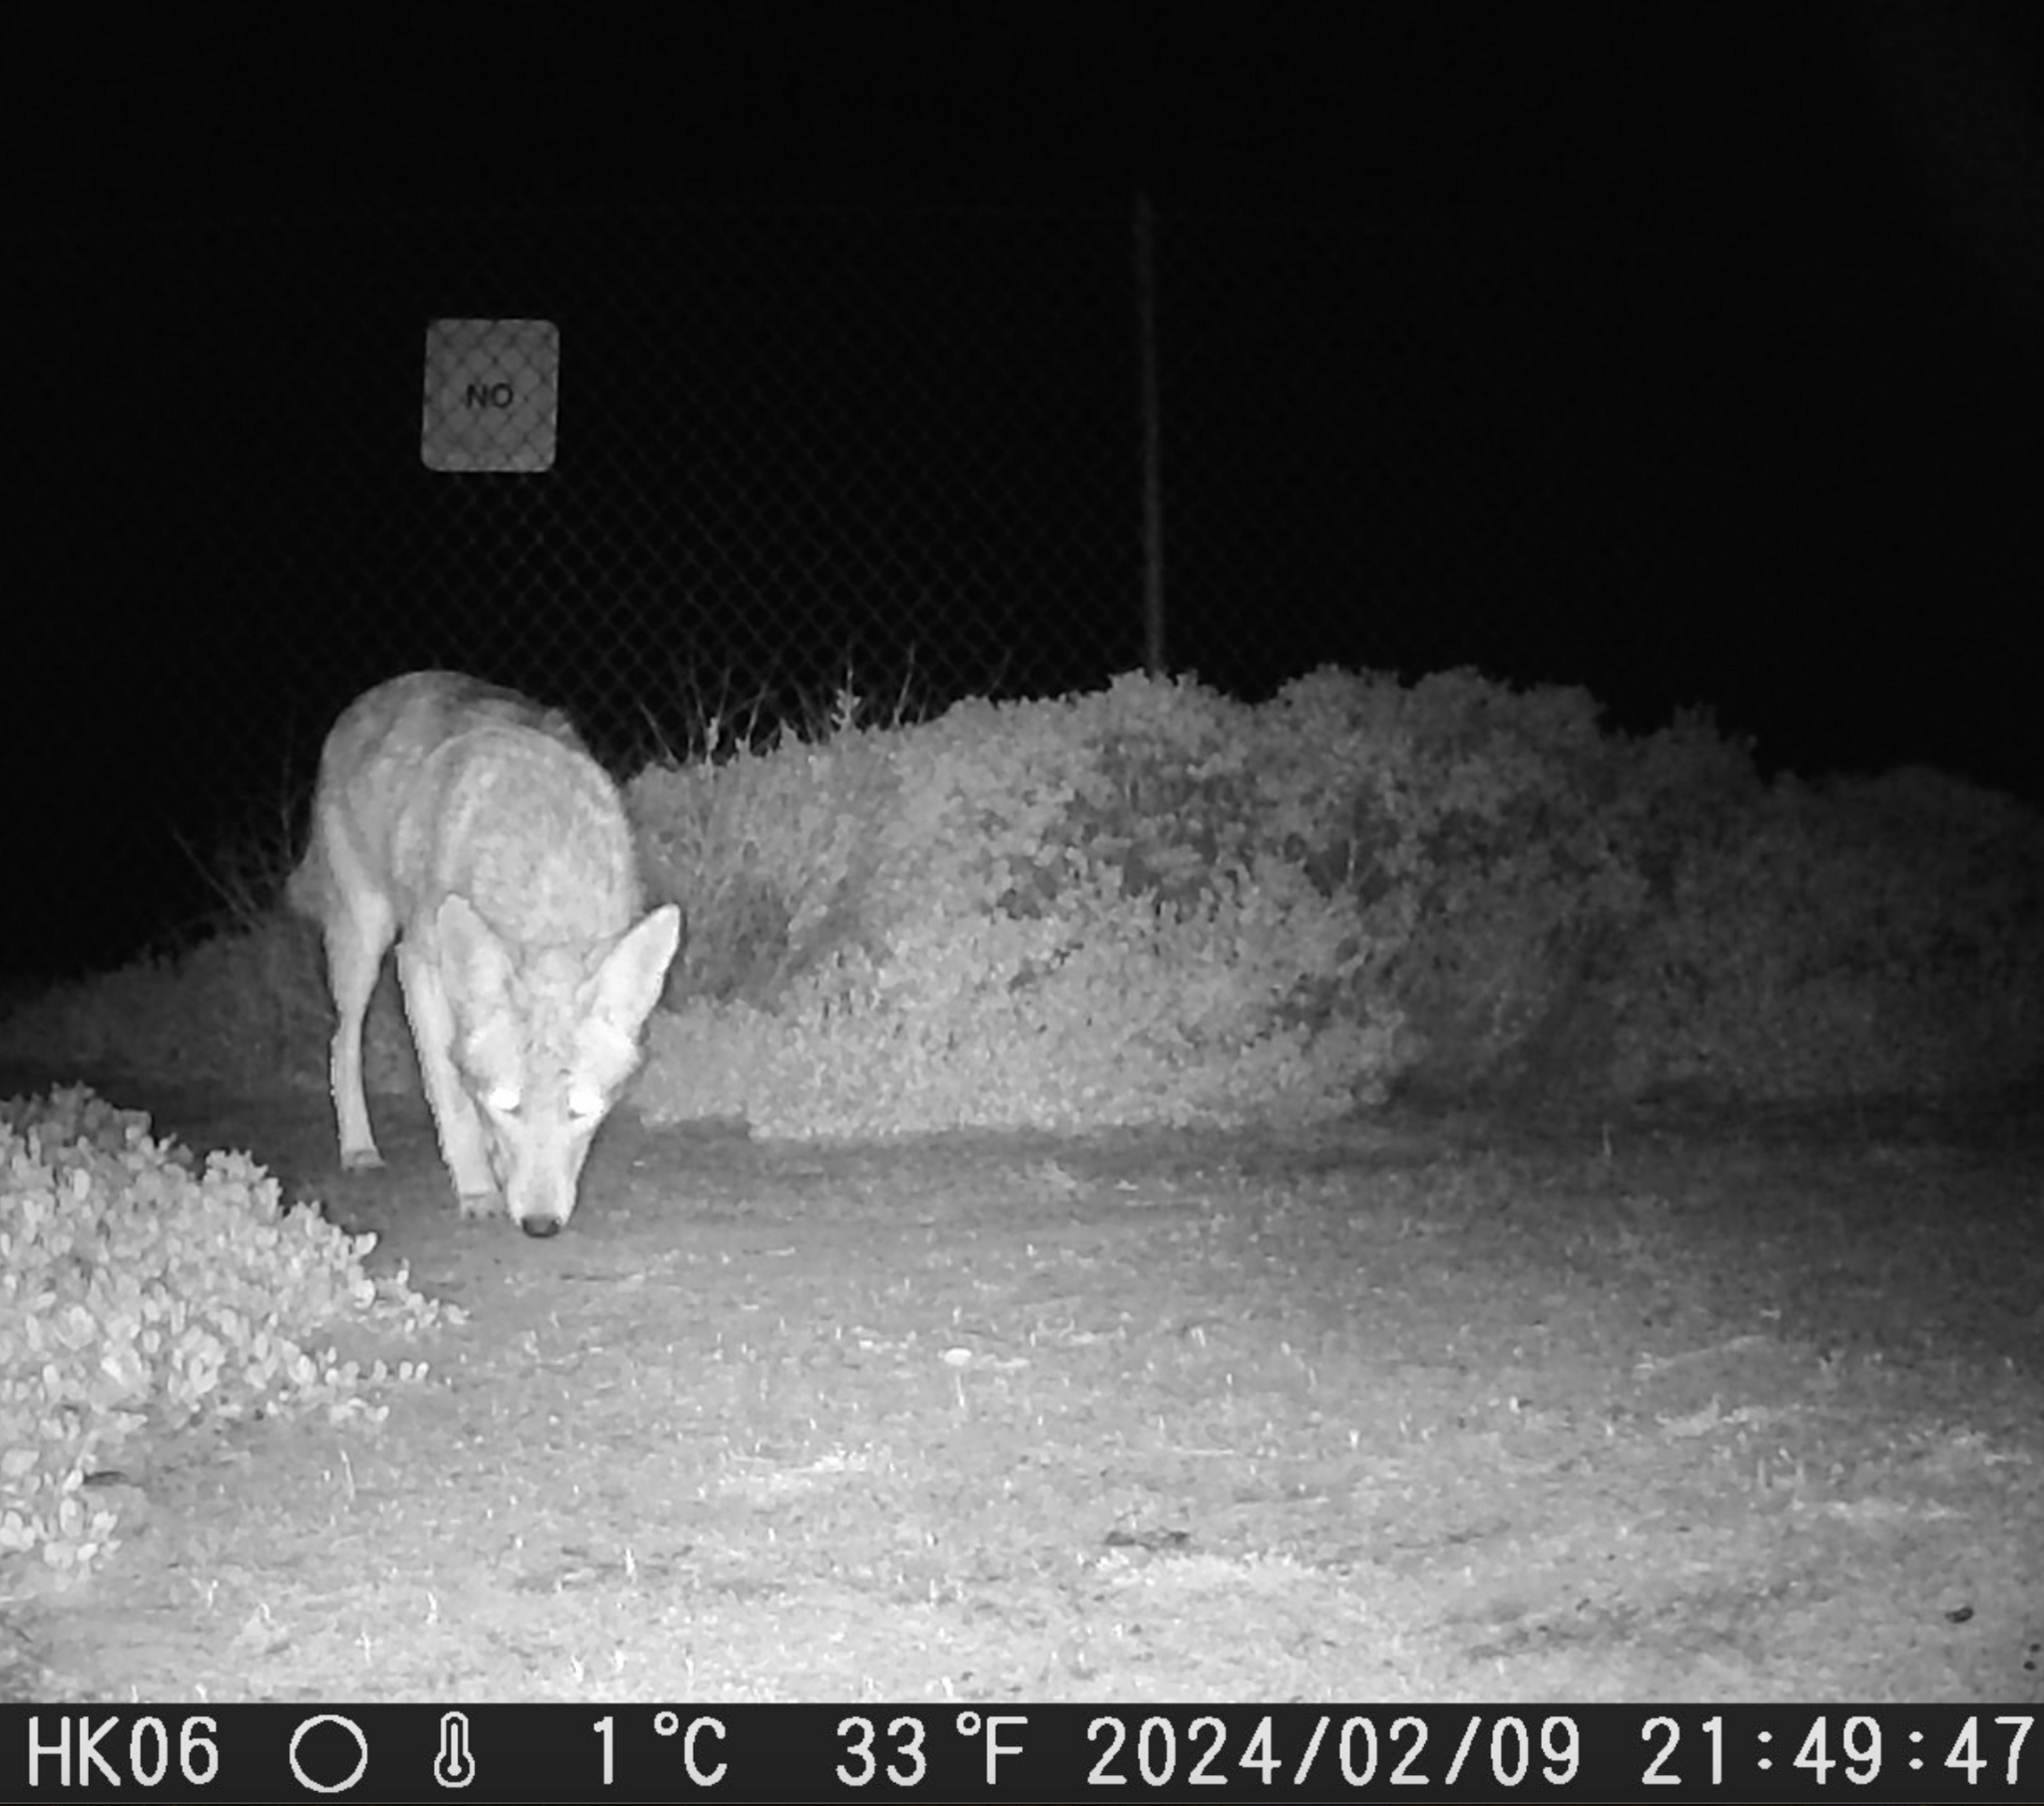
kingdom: Animalia
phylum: Chordata
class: Mammalia
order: Carnivora
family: Canidae
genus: Canis
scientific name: Canis latrans
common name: Coyote
